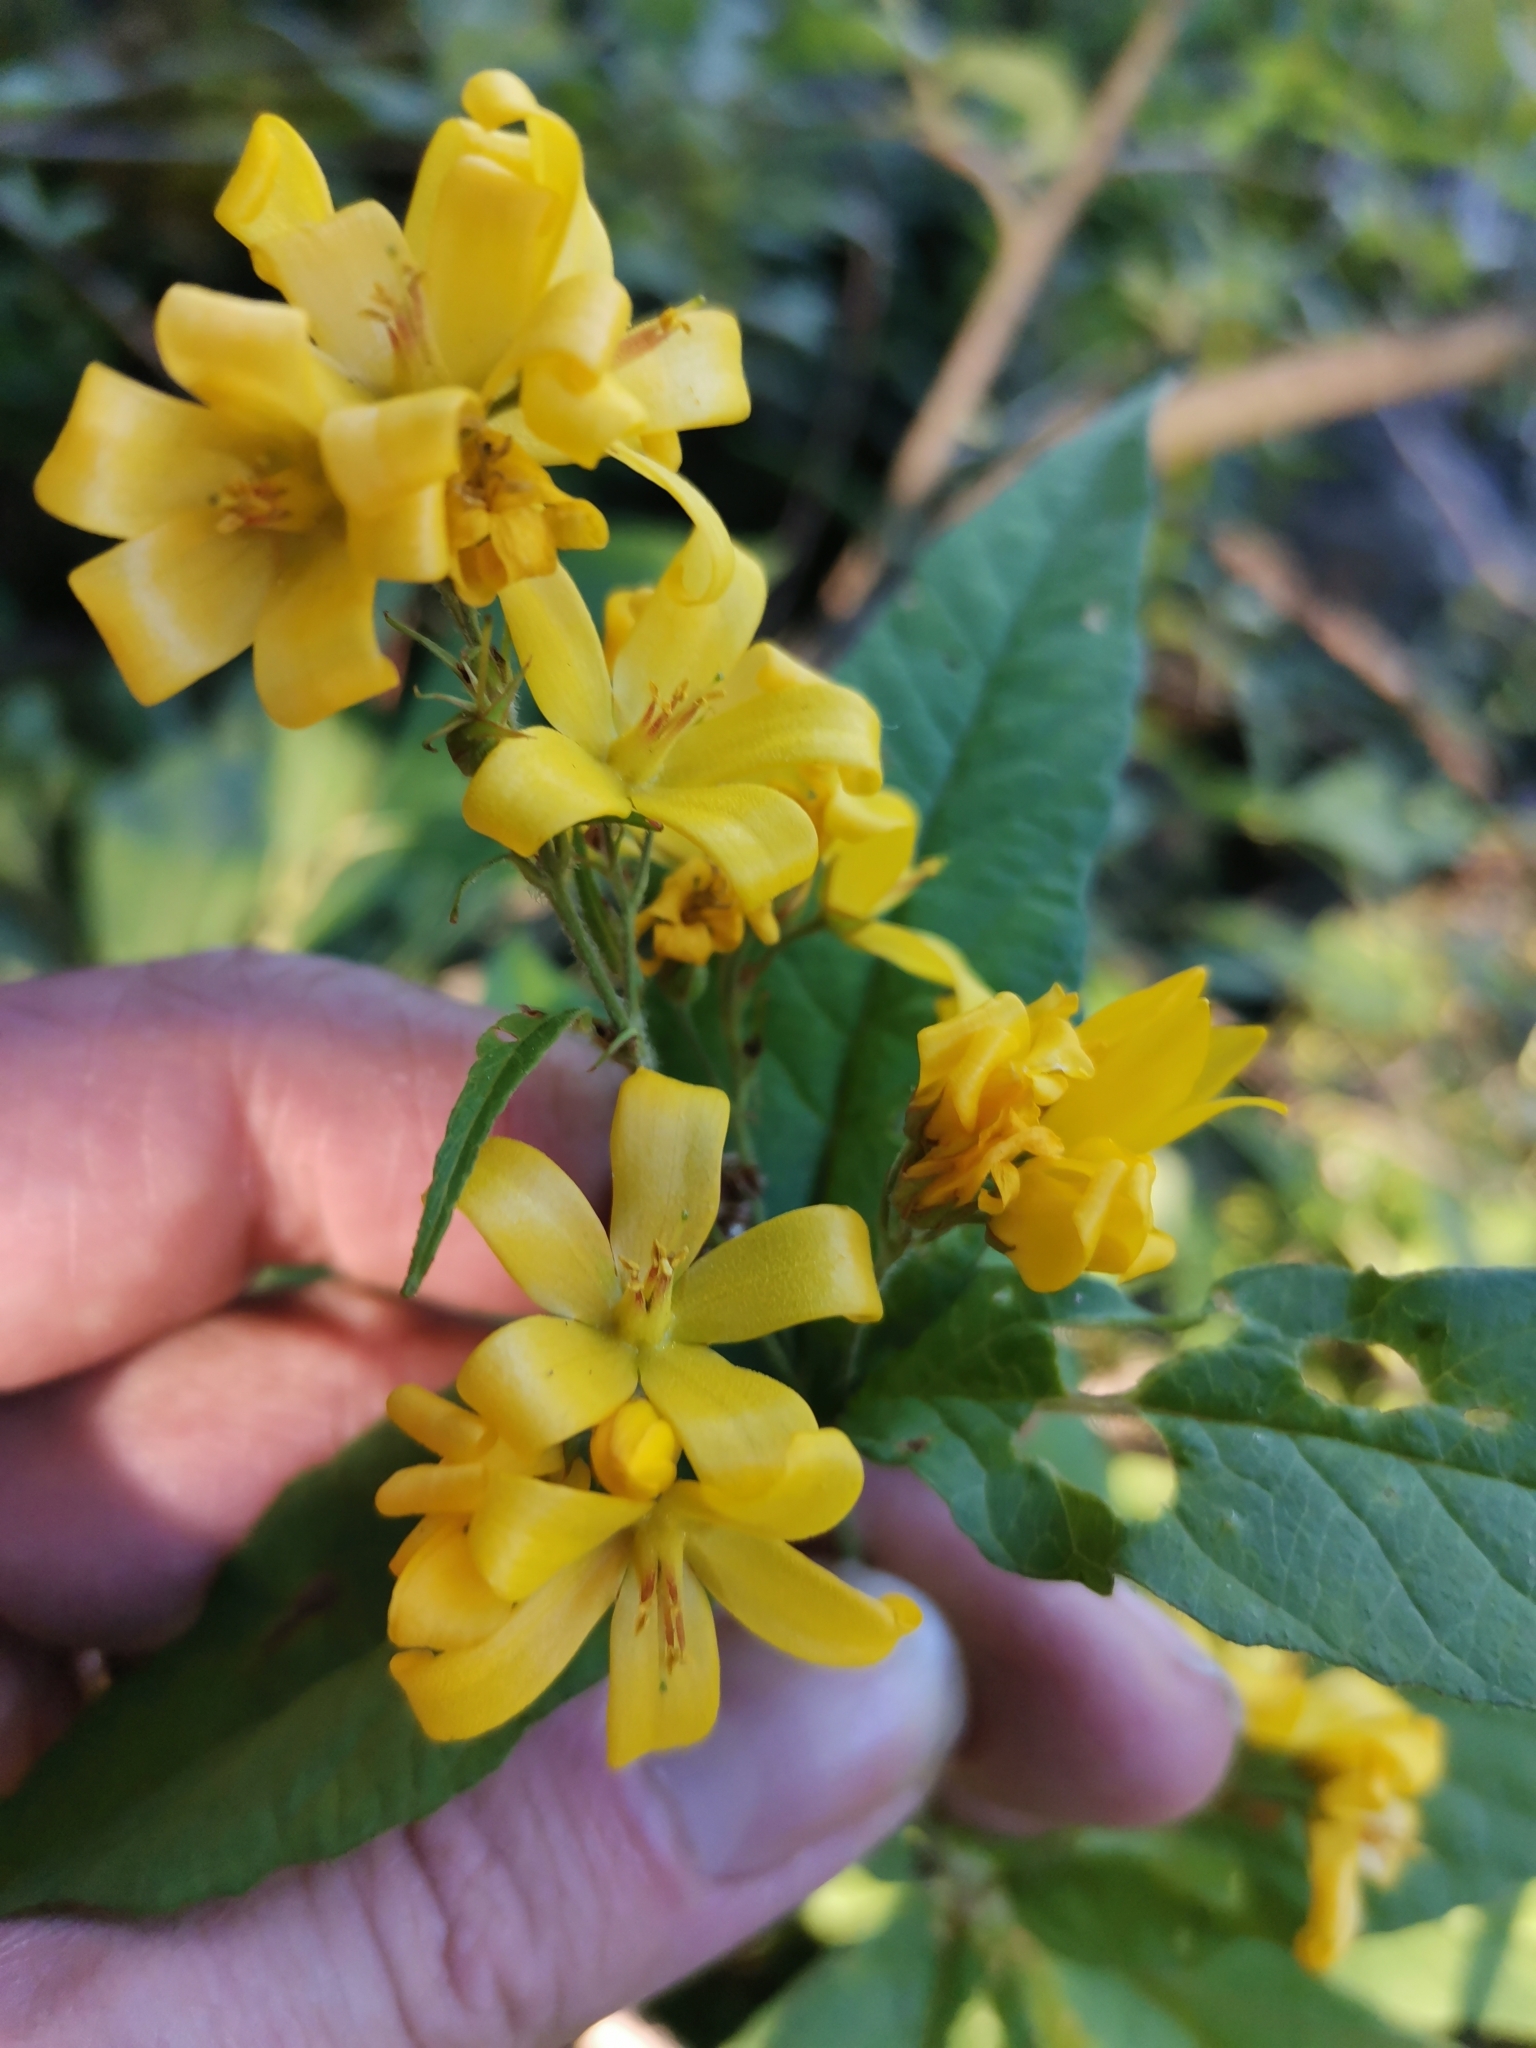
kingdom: Plantae
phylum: Tracheophyta
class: Magnoliopsida
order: Ericales
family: Primulaceae
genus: Lysimachia
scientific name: Lysimachia vulgaris
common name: Yellow loosestrife
